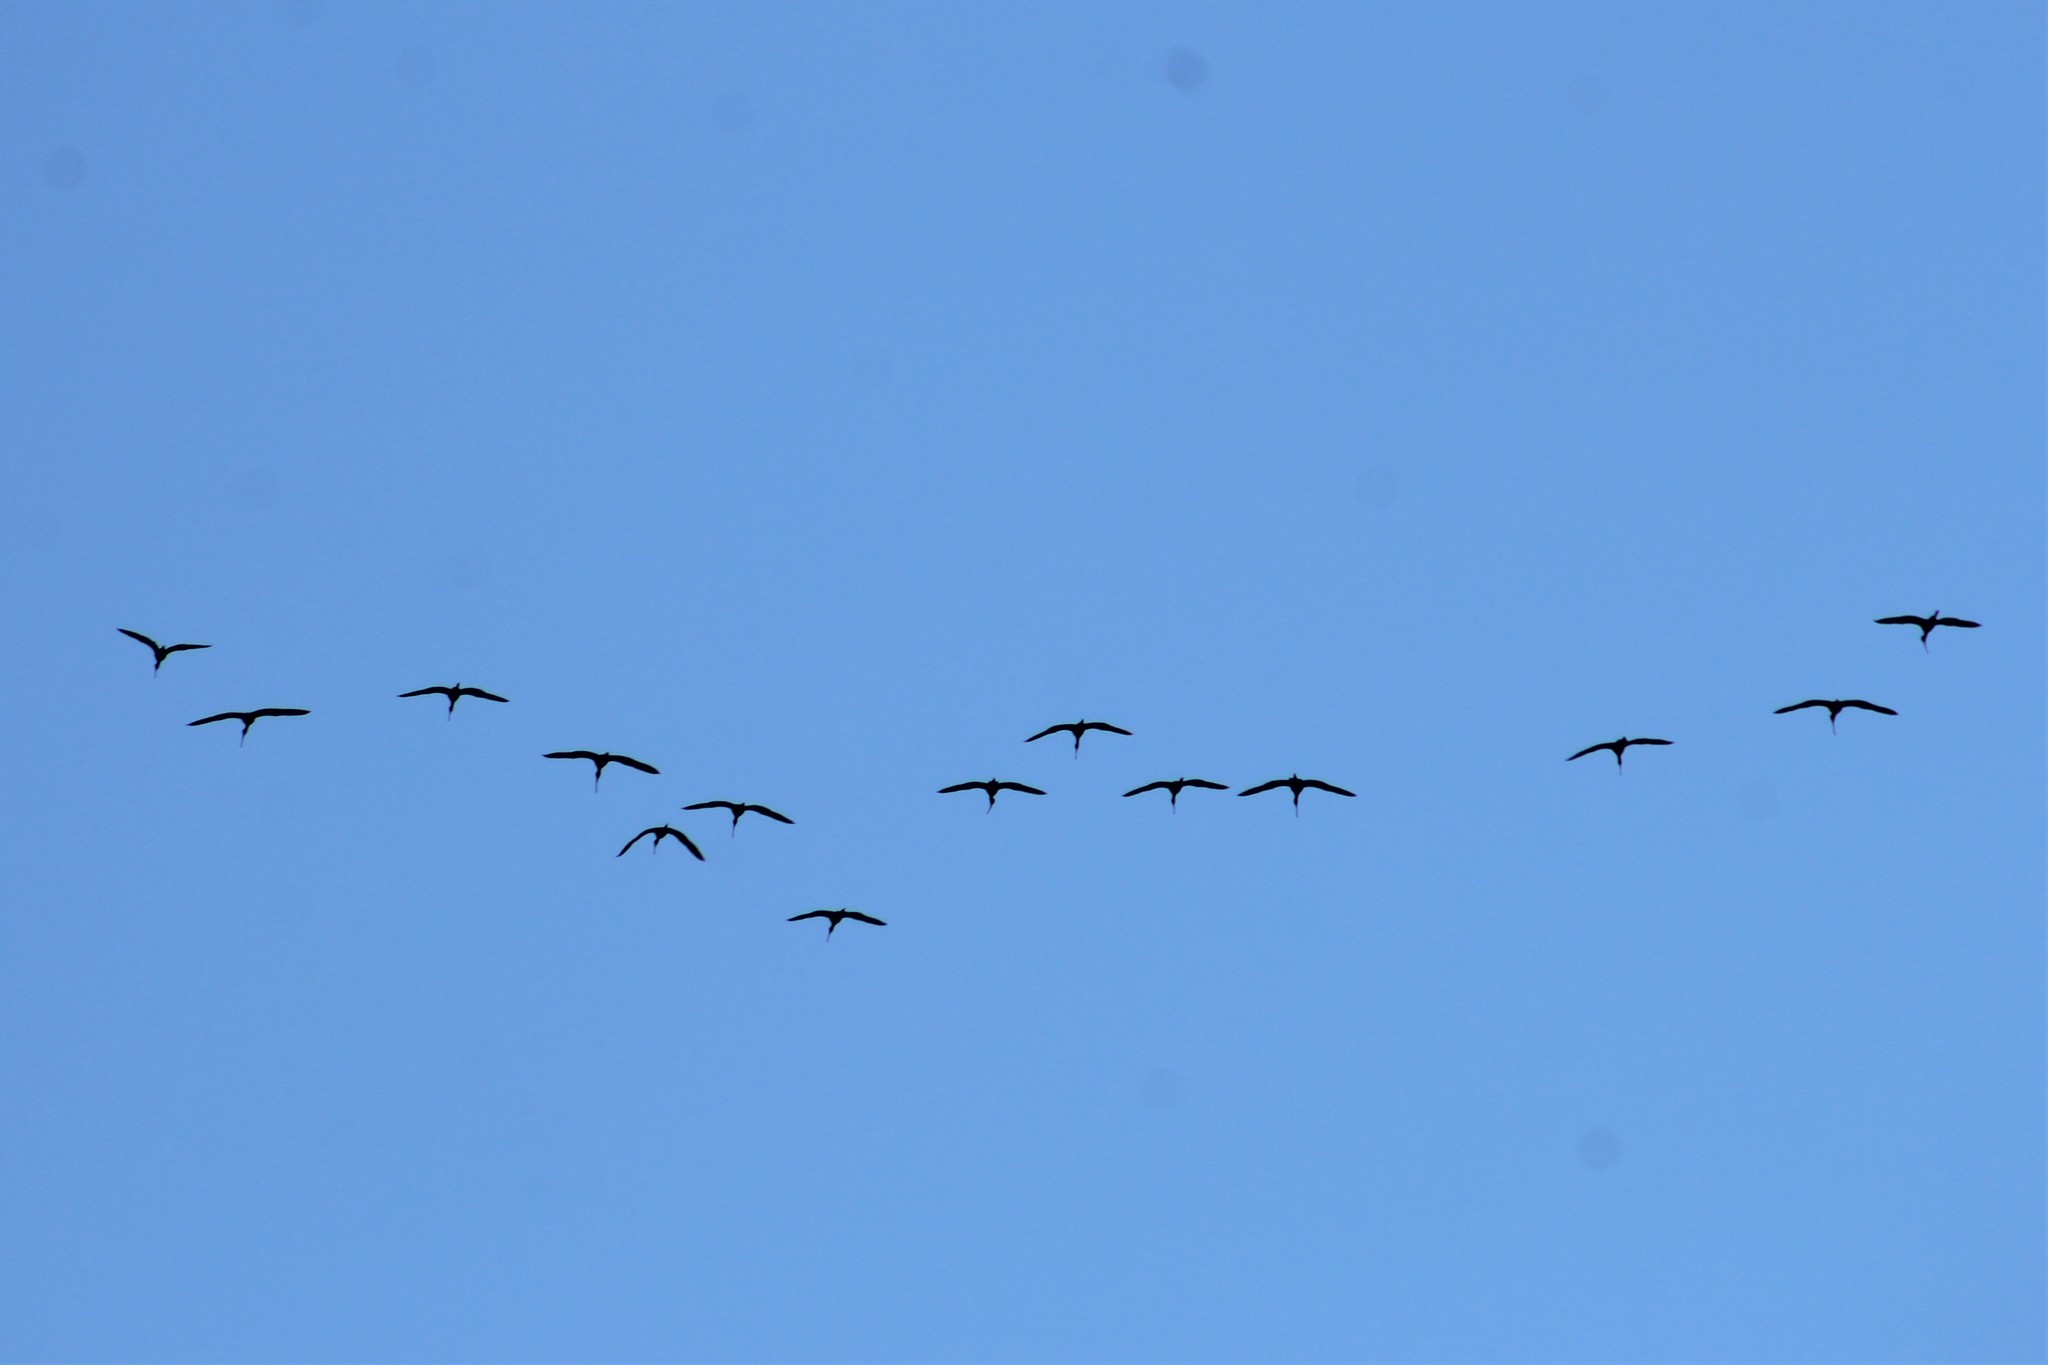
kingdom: Animalia
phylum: Chordata
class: Aves
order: Pelecaniformes
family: Threskiornithidae
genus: Plegadis
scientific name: Plegadis chihi
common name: White-faced ibis
